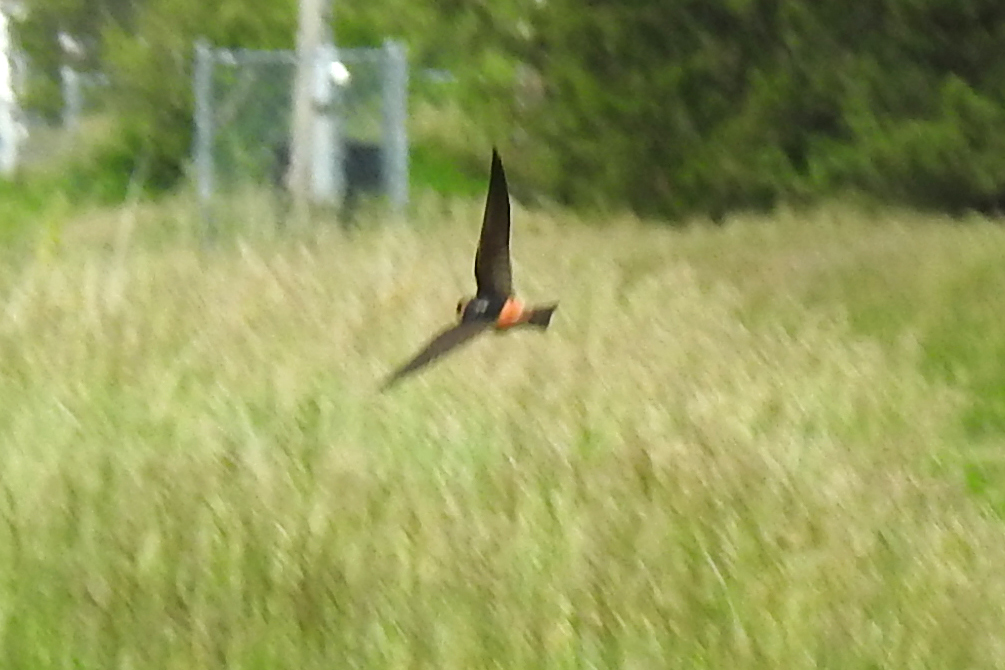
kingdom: Animalia
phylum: Chordata
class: Aves
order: Passeriformes
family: Hirundinidae
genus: Petrochelidon
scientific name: Petrochelidon pyrrhonota
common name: American cliff swallow
